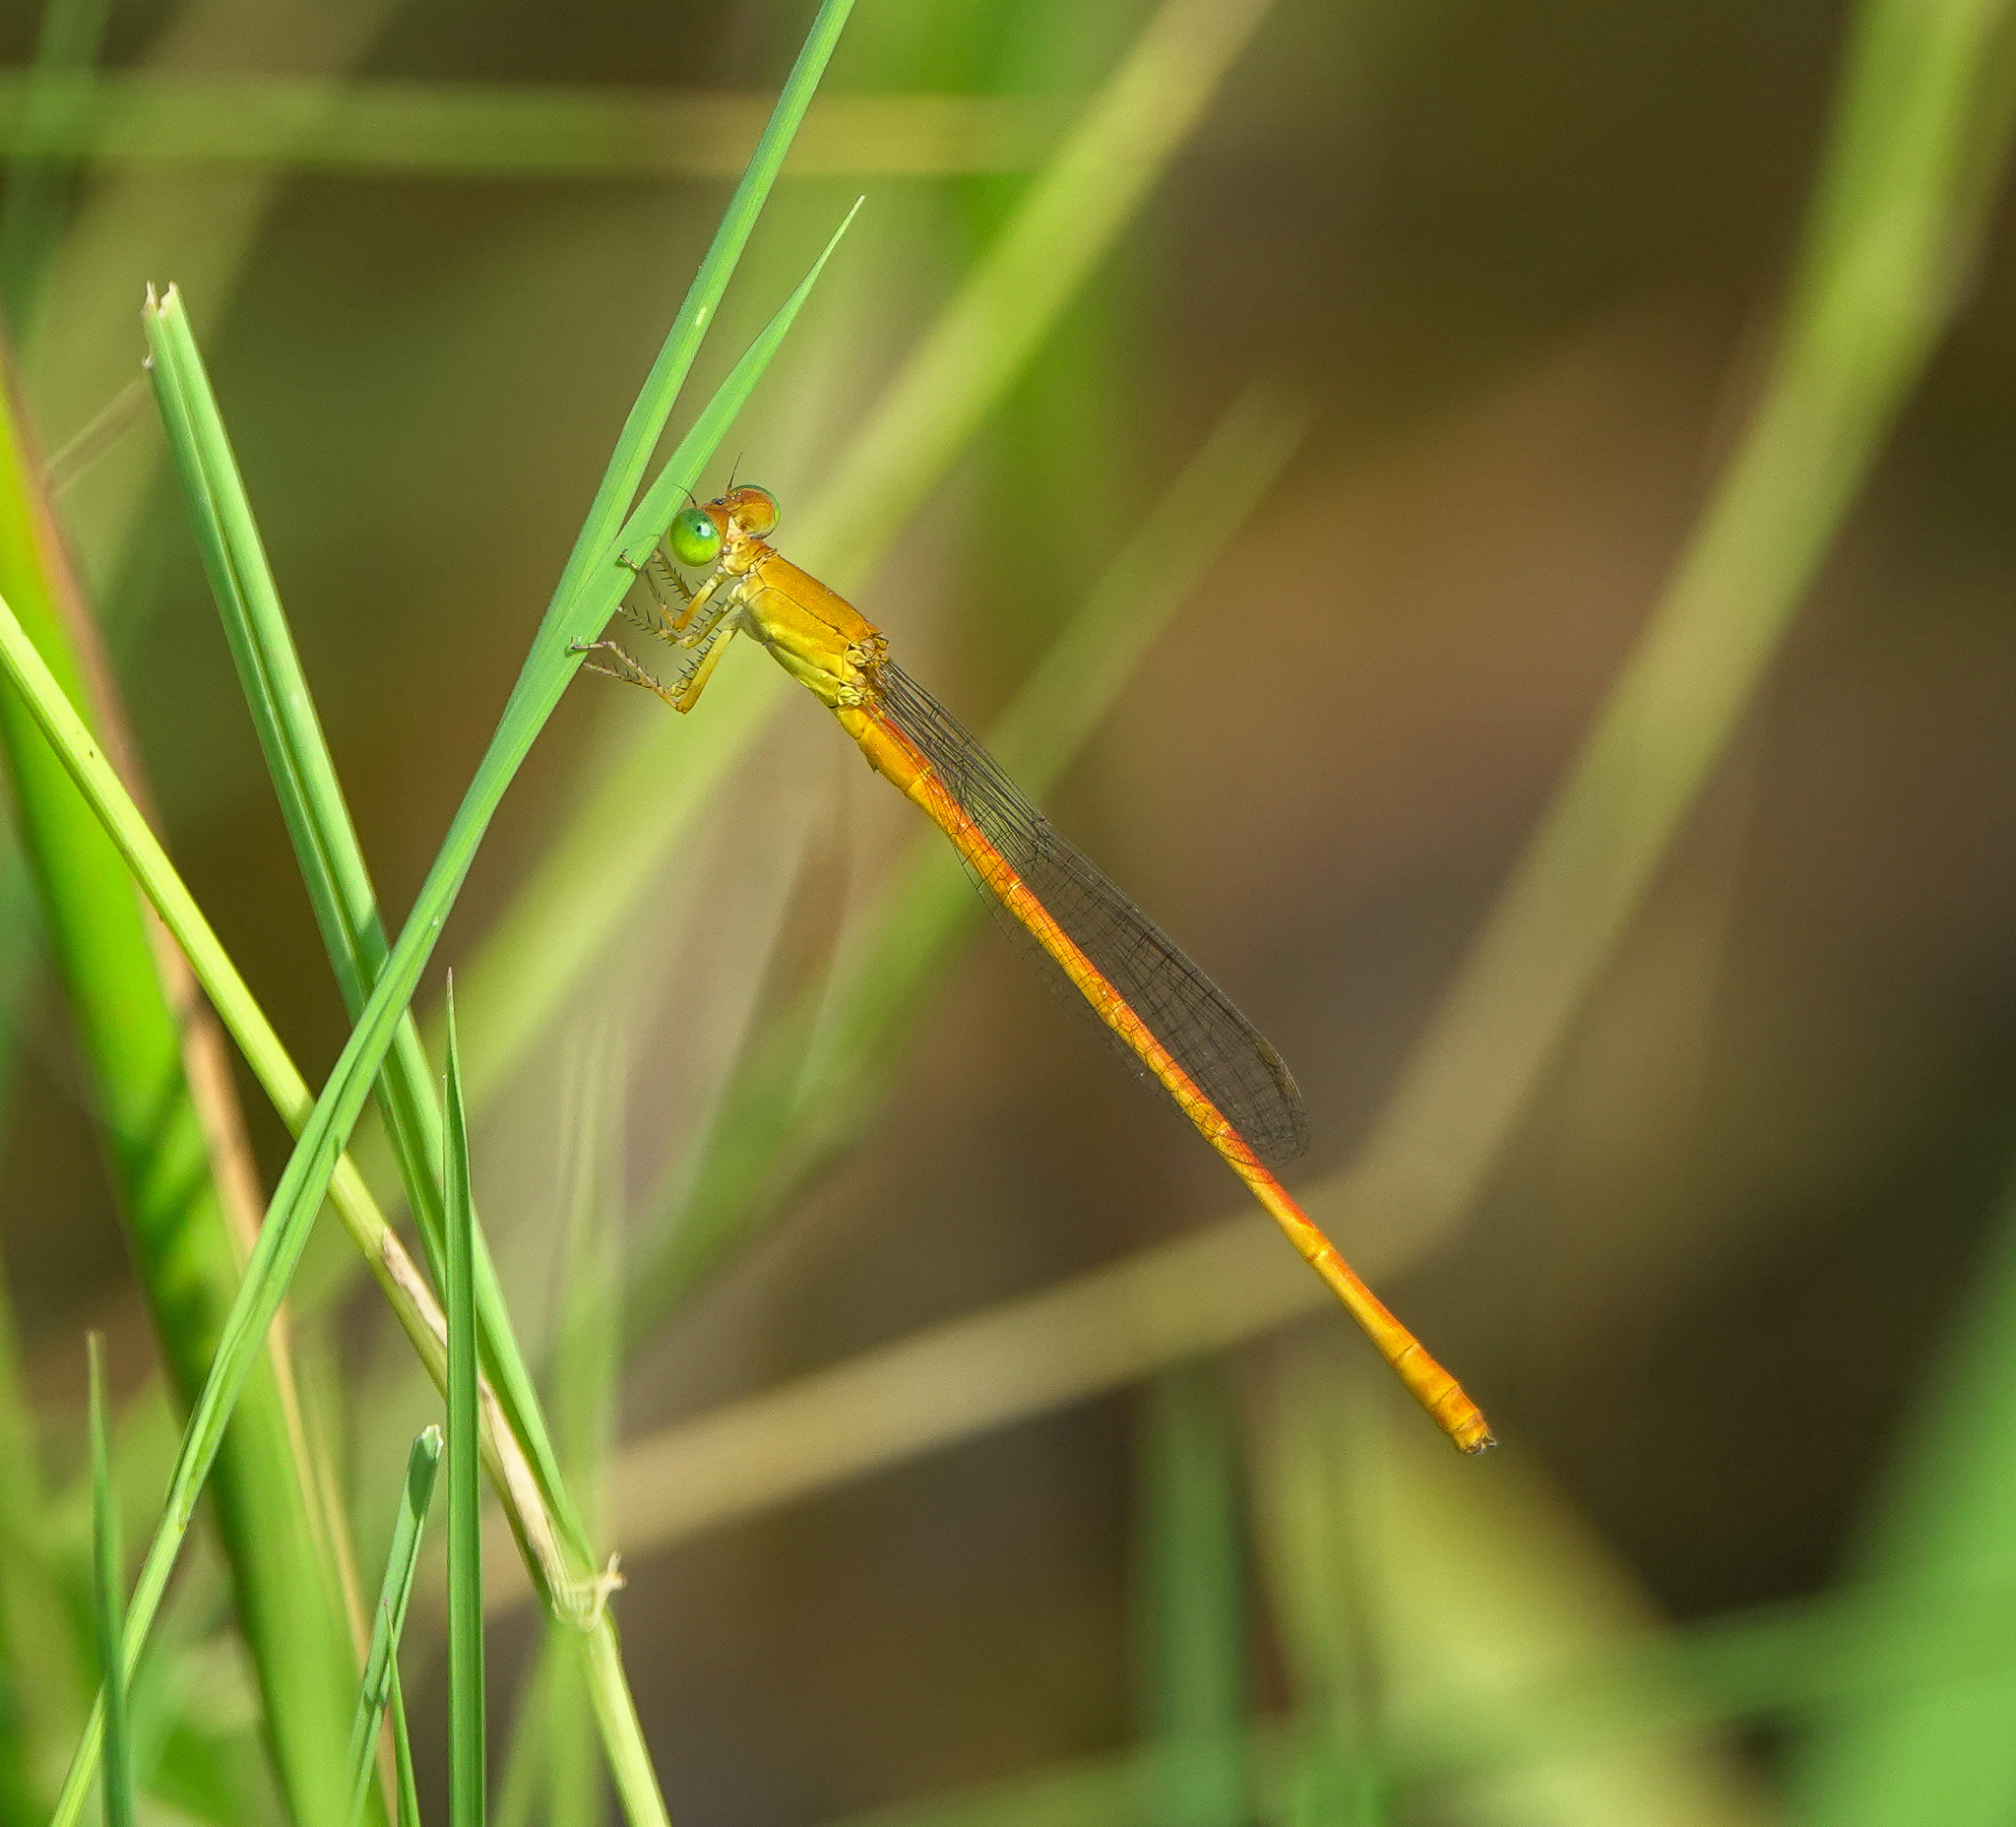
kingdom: Animalia
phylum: Arthropoda
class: Insecta
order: Odonata
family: Coenagrionidae
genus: Ceriagrion
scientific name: Ceriagrion rubiae
